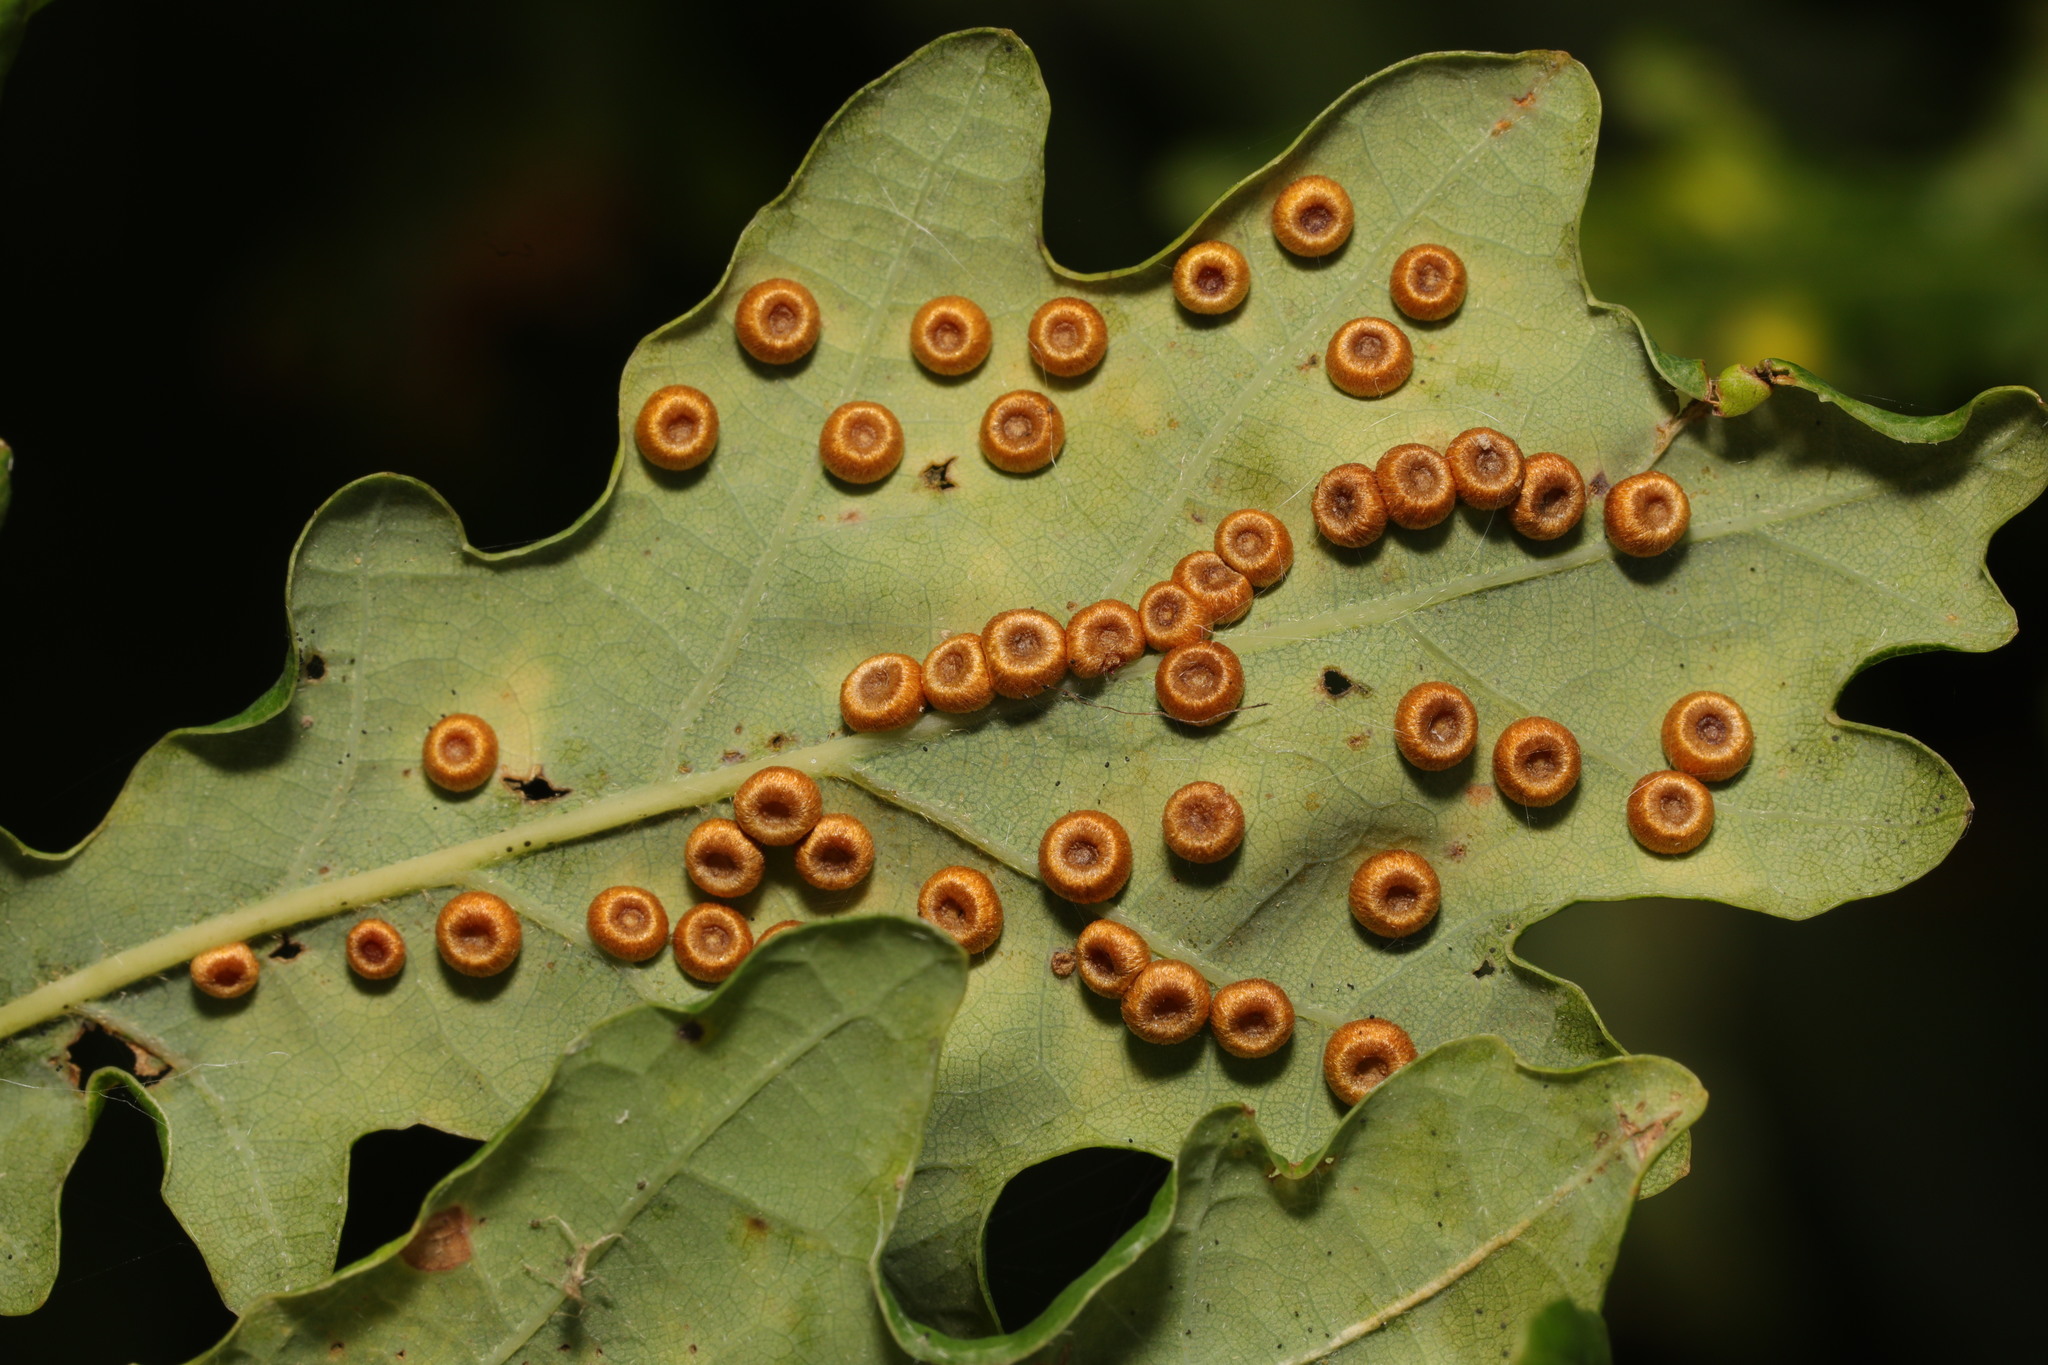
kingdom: Animalia
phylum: Arthropoda
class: Insecta
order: Hymenoptera
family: Cynipidae
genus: Neuroterus
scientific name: Neuroterus numismalis
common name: Silk-button spangle gall
